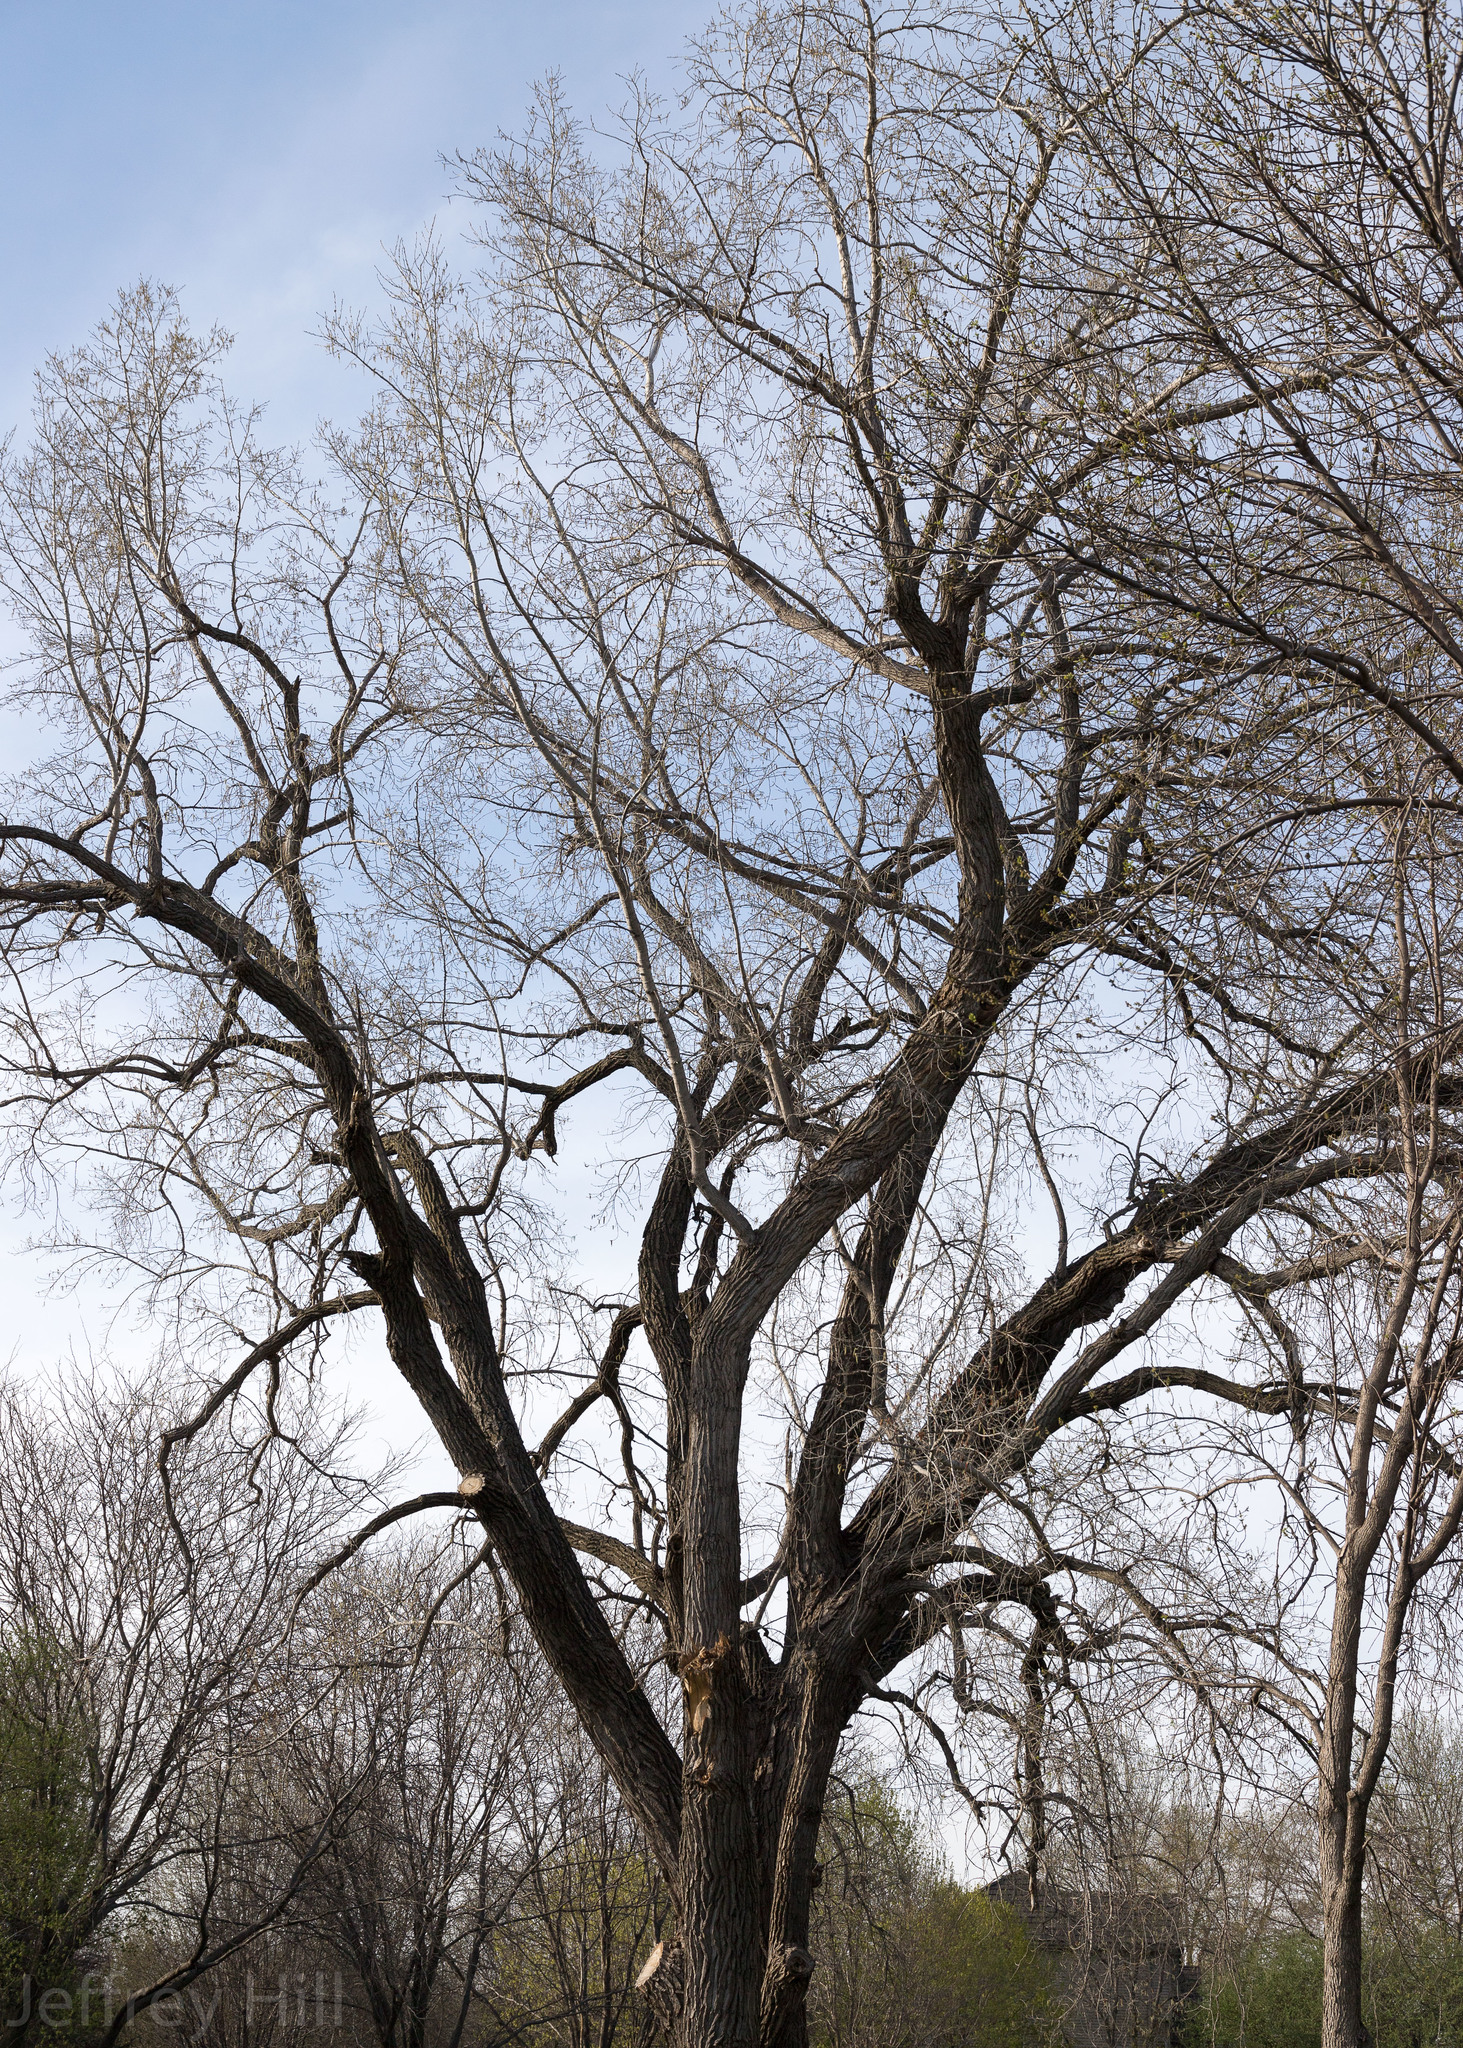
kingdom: Plantae
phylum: Tracheophyta
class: Magnoliopsida
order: Malpighiales
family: Salicaceae
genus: Populus
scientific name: Populus deltoides
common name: Eastern cottonwood
